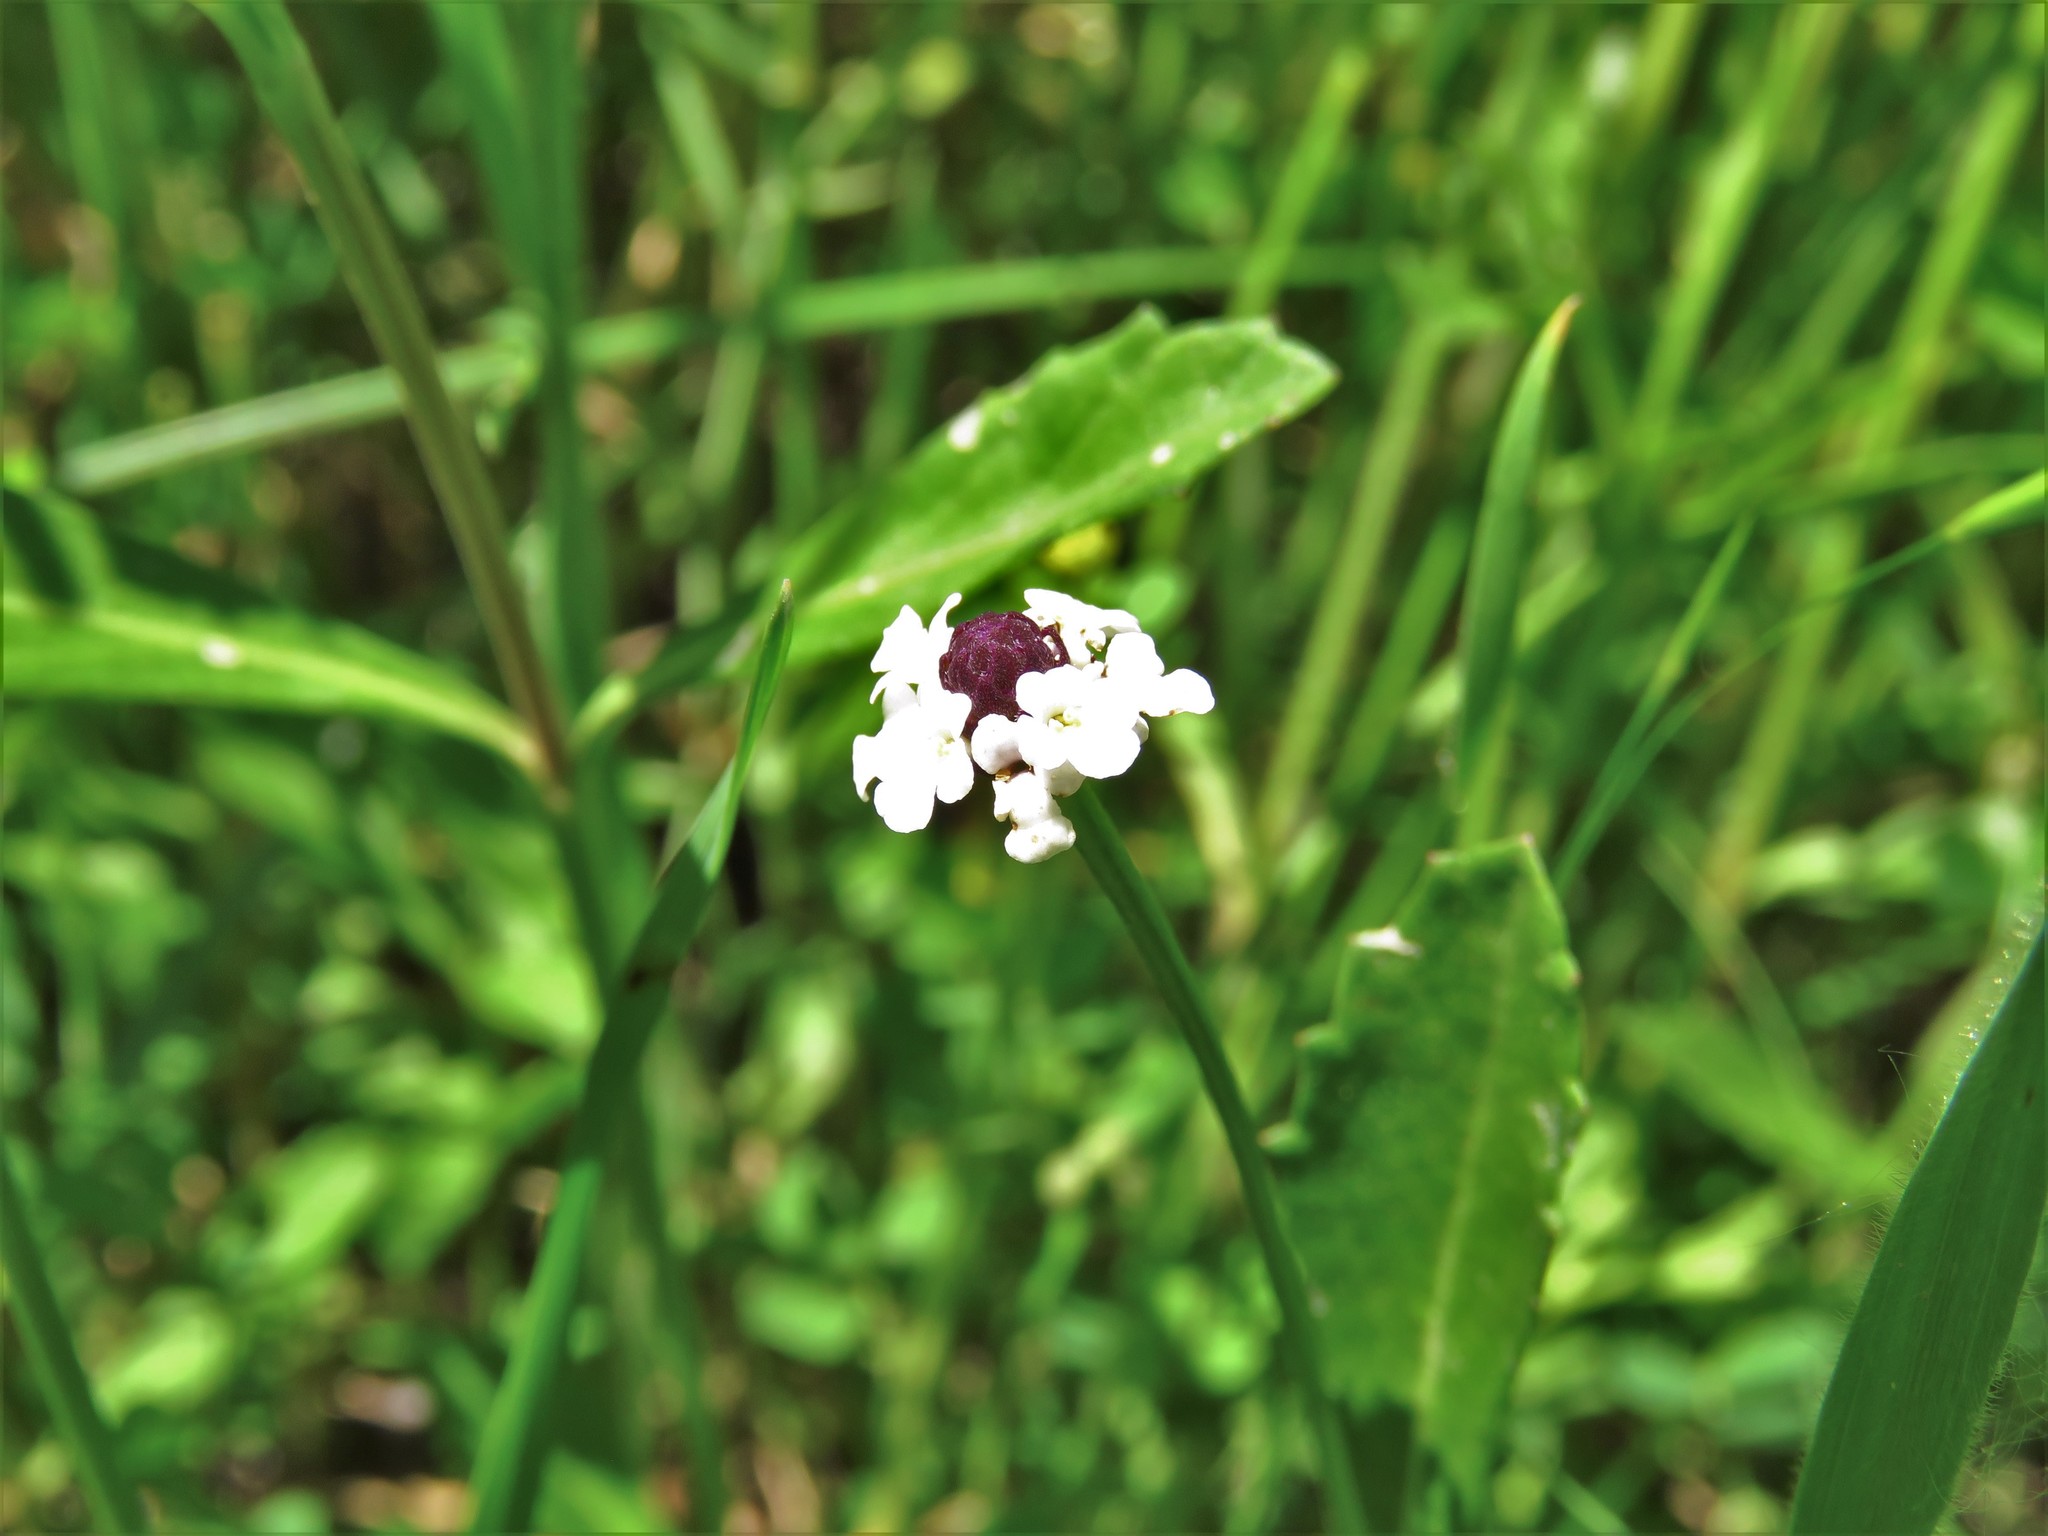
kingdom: Plantae
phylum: Tracheophyta
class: Magnoliopsida
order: Lamiales
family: Verbenaceae
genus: Phyla
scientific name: Phyla nodiflora
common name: Frogfruit
